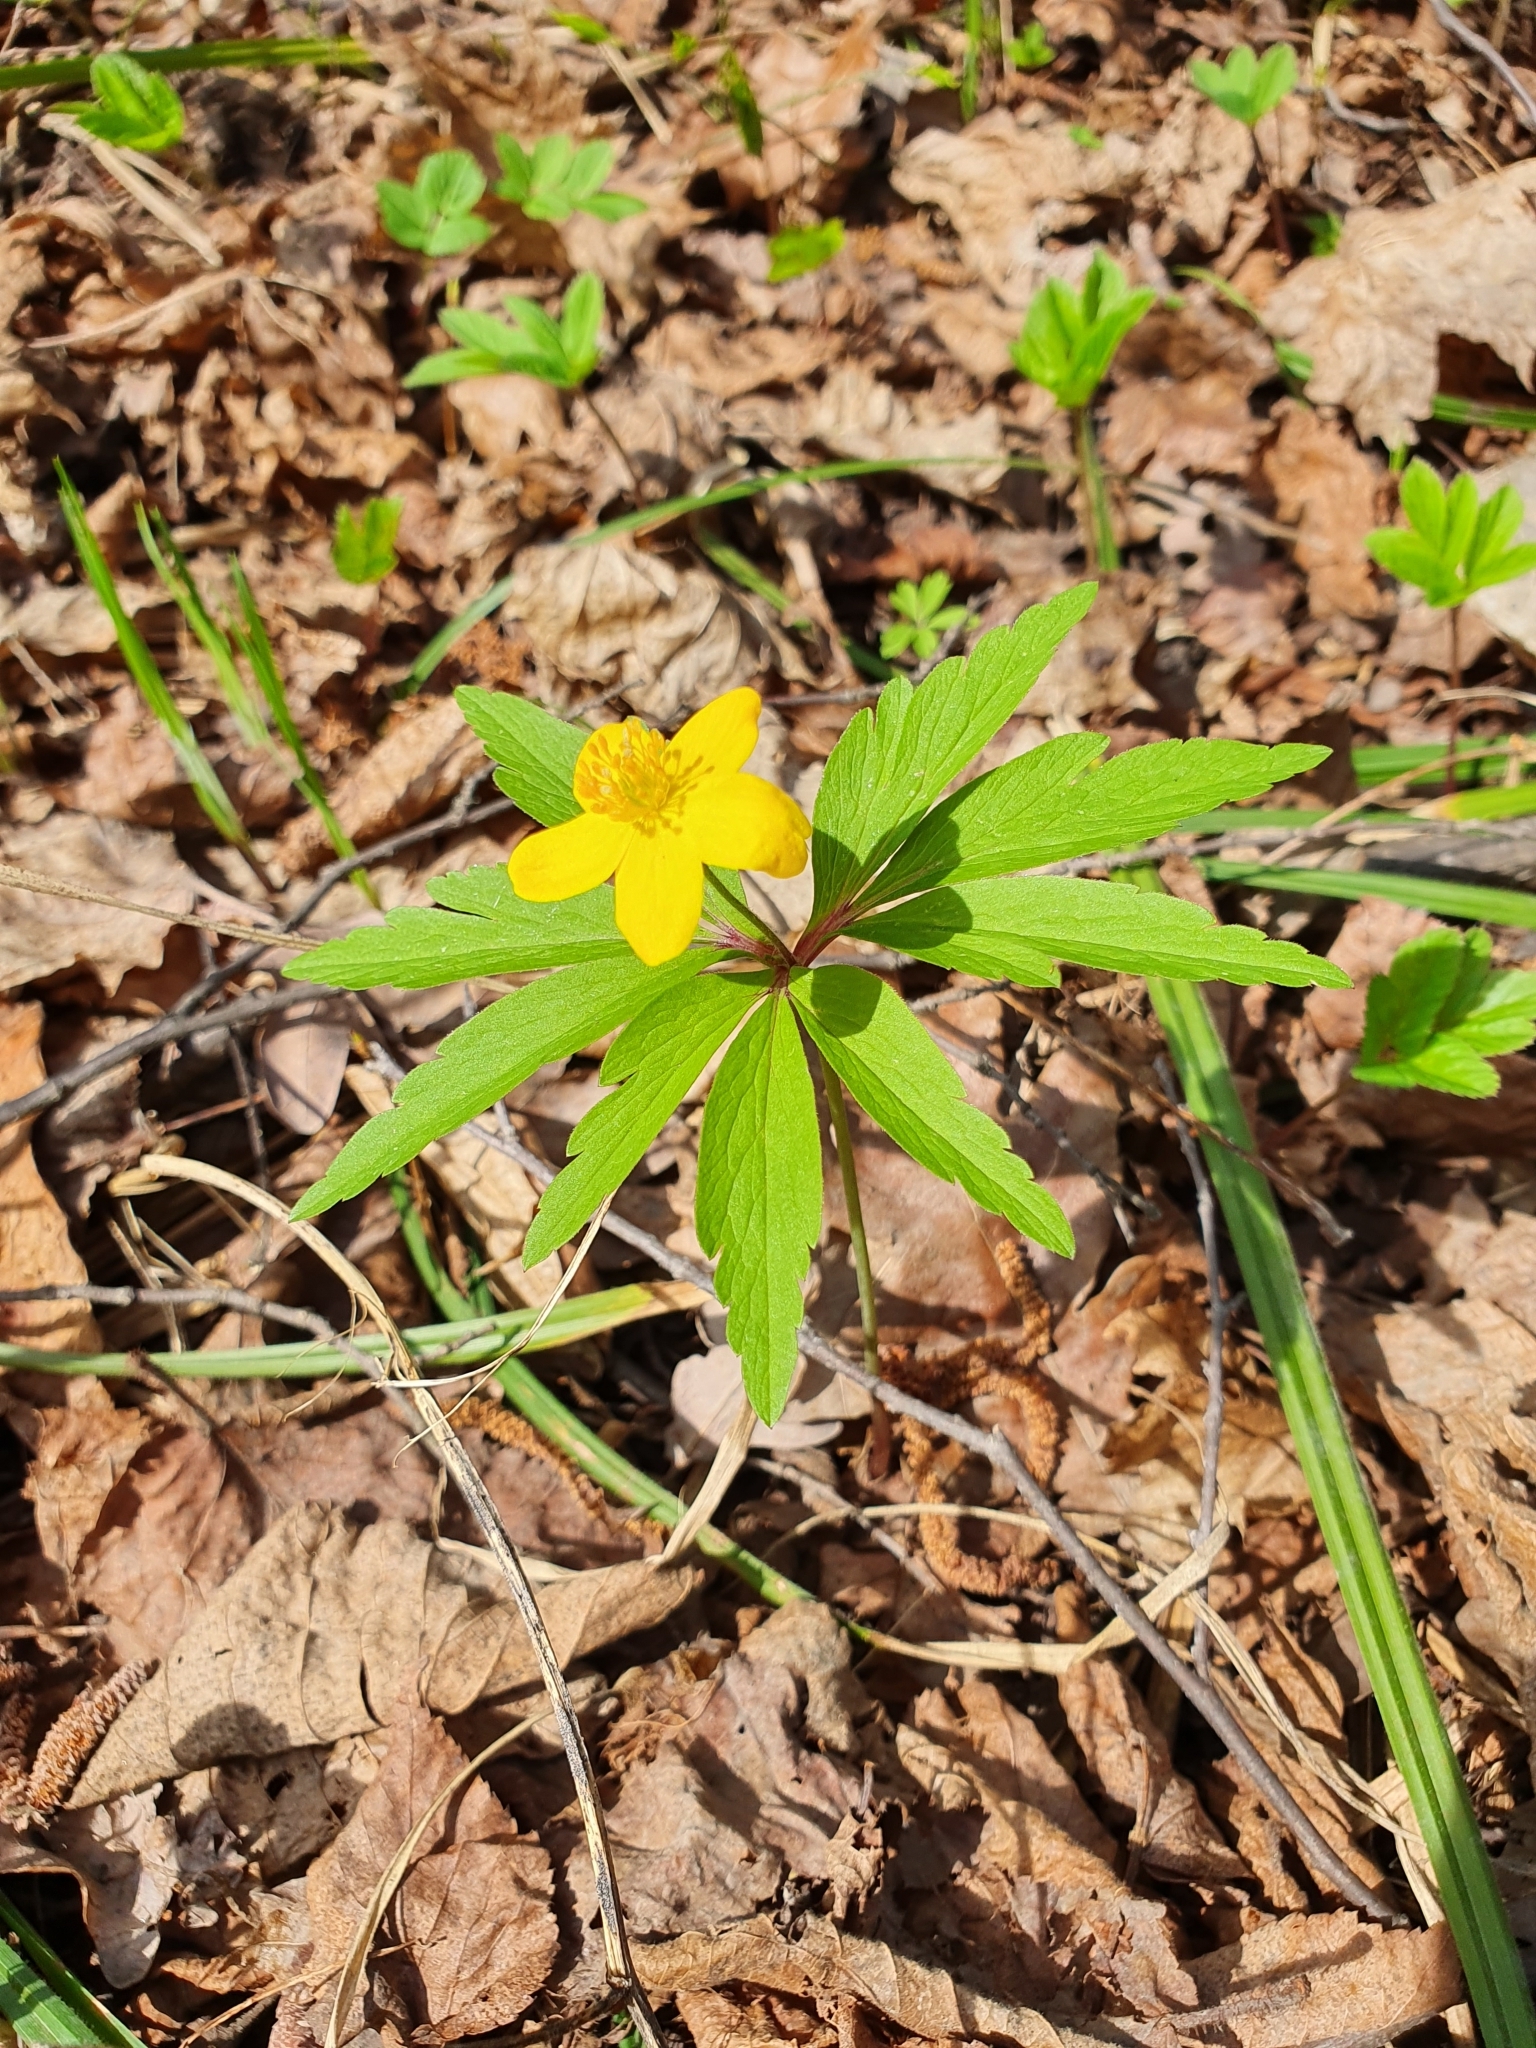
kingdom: Plantae
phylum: Tracheophyta
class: Magnoliopsida
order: Ranunculales
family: Ranunculaceae
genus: Anemone
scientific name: Anemone ranunculoides
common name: Yellow anemone
